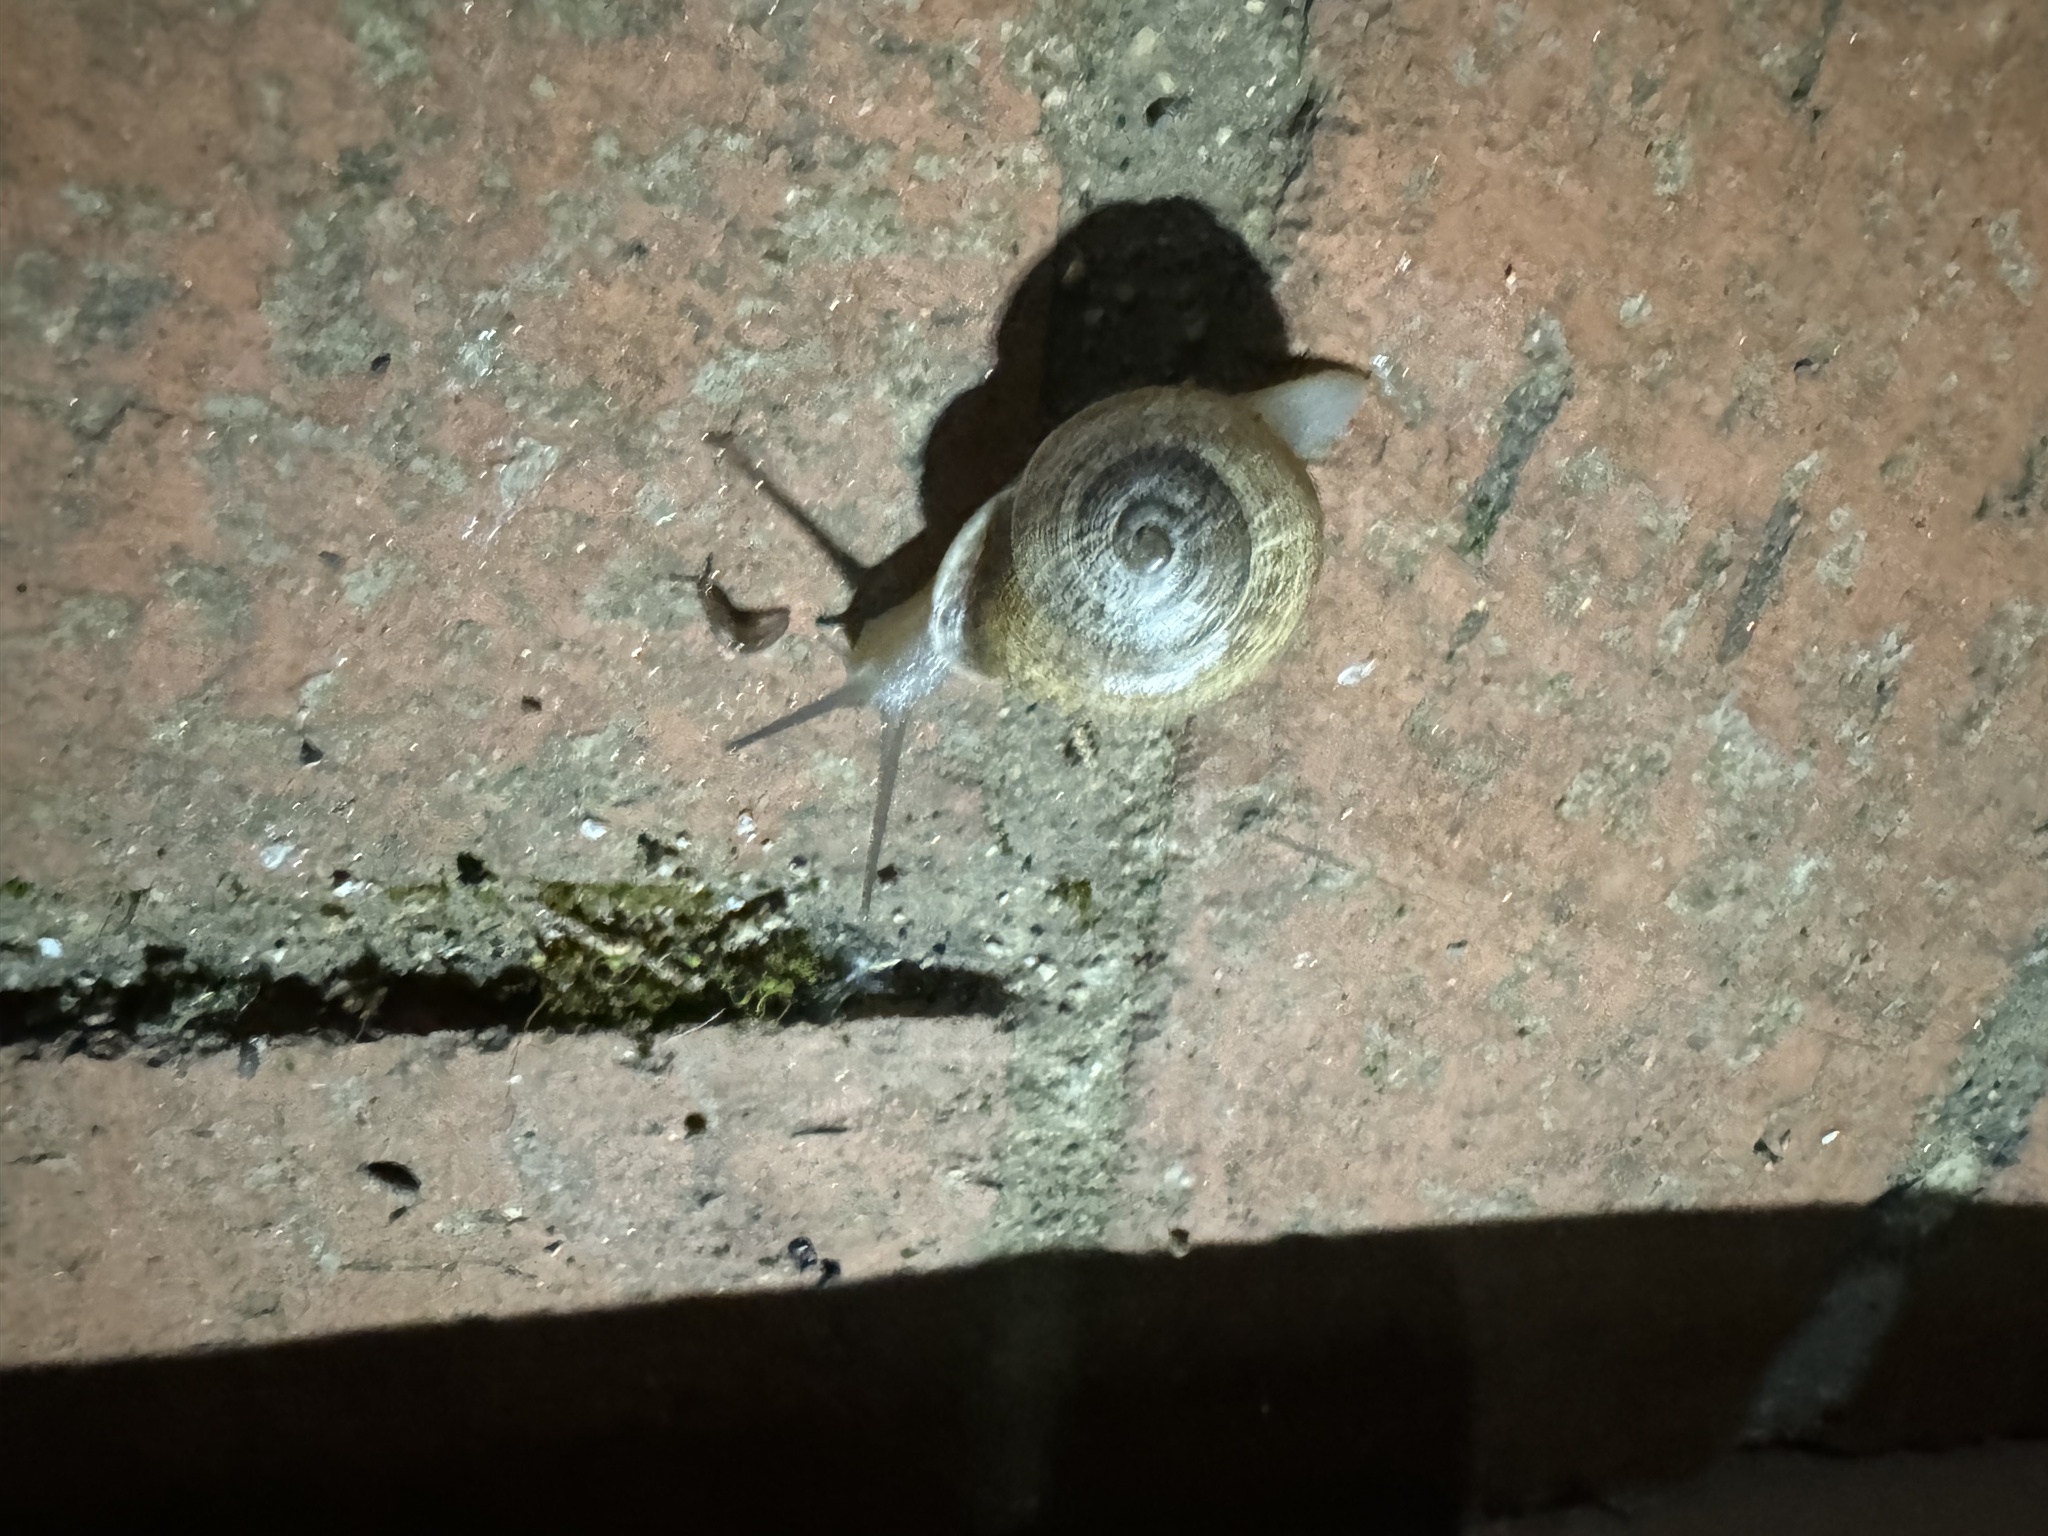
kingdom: Animalia
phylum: Mollusca
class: Gastropoda
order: Stylommatophora
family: Helicidae
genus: Otala
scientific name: Otala lactea
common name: Milk snail
